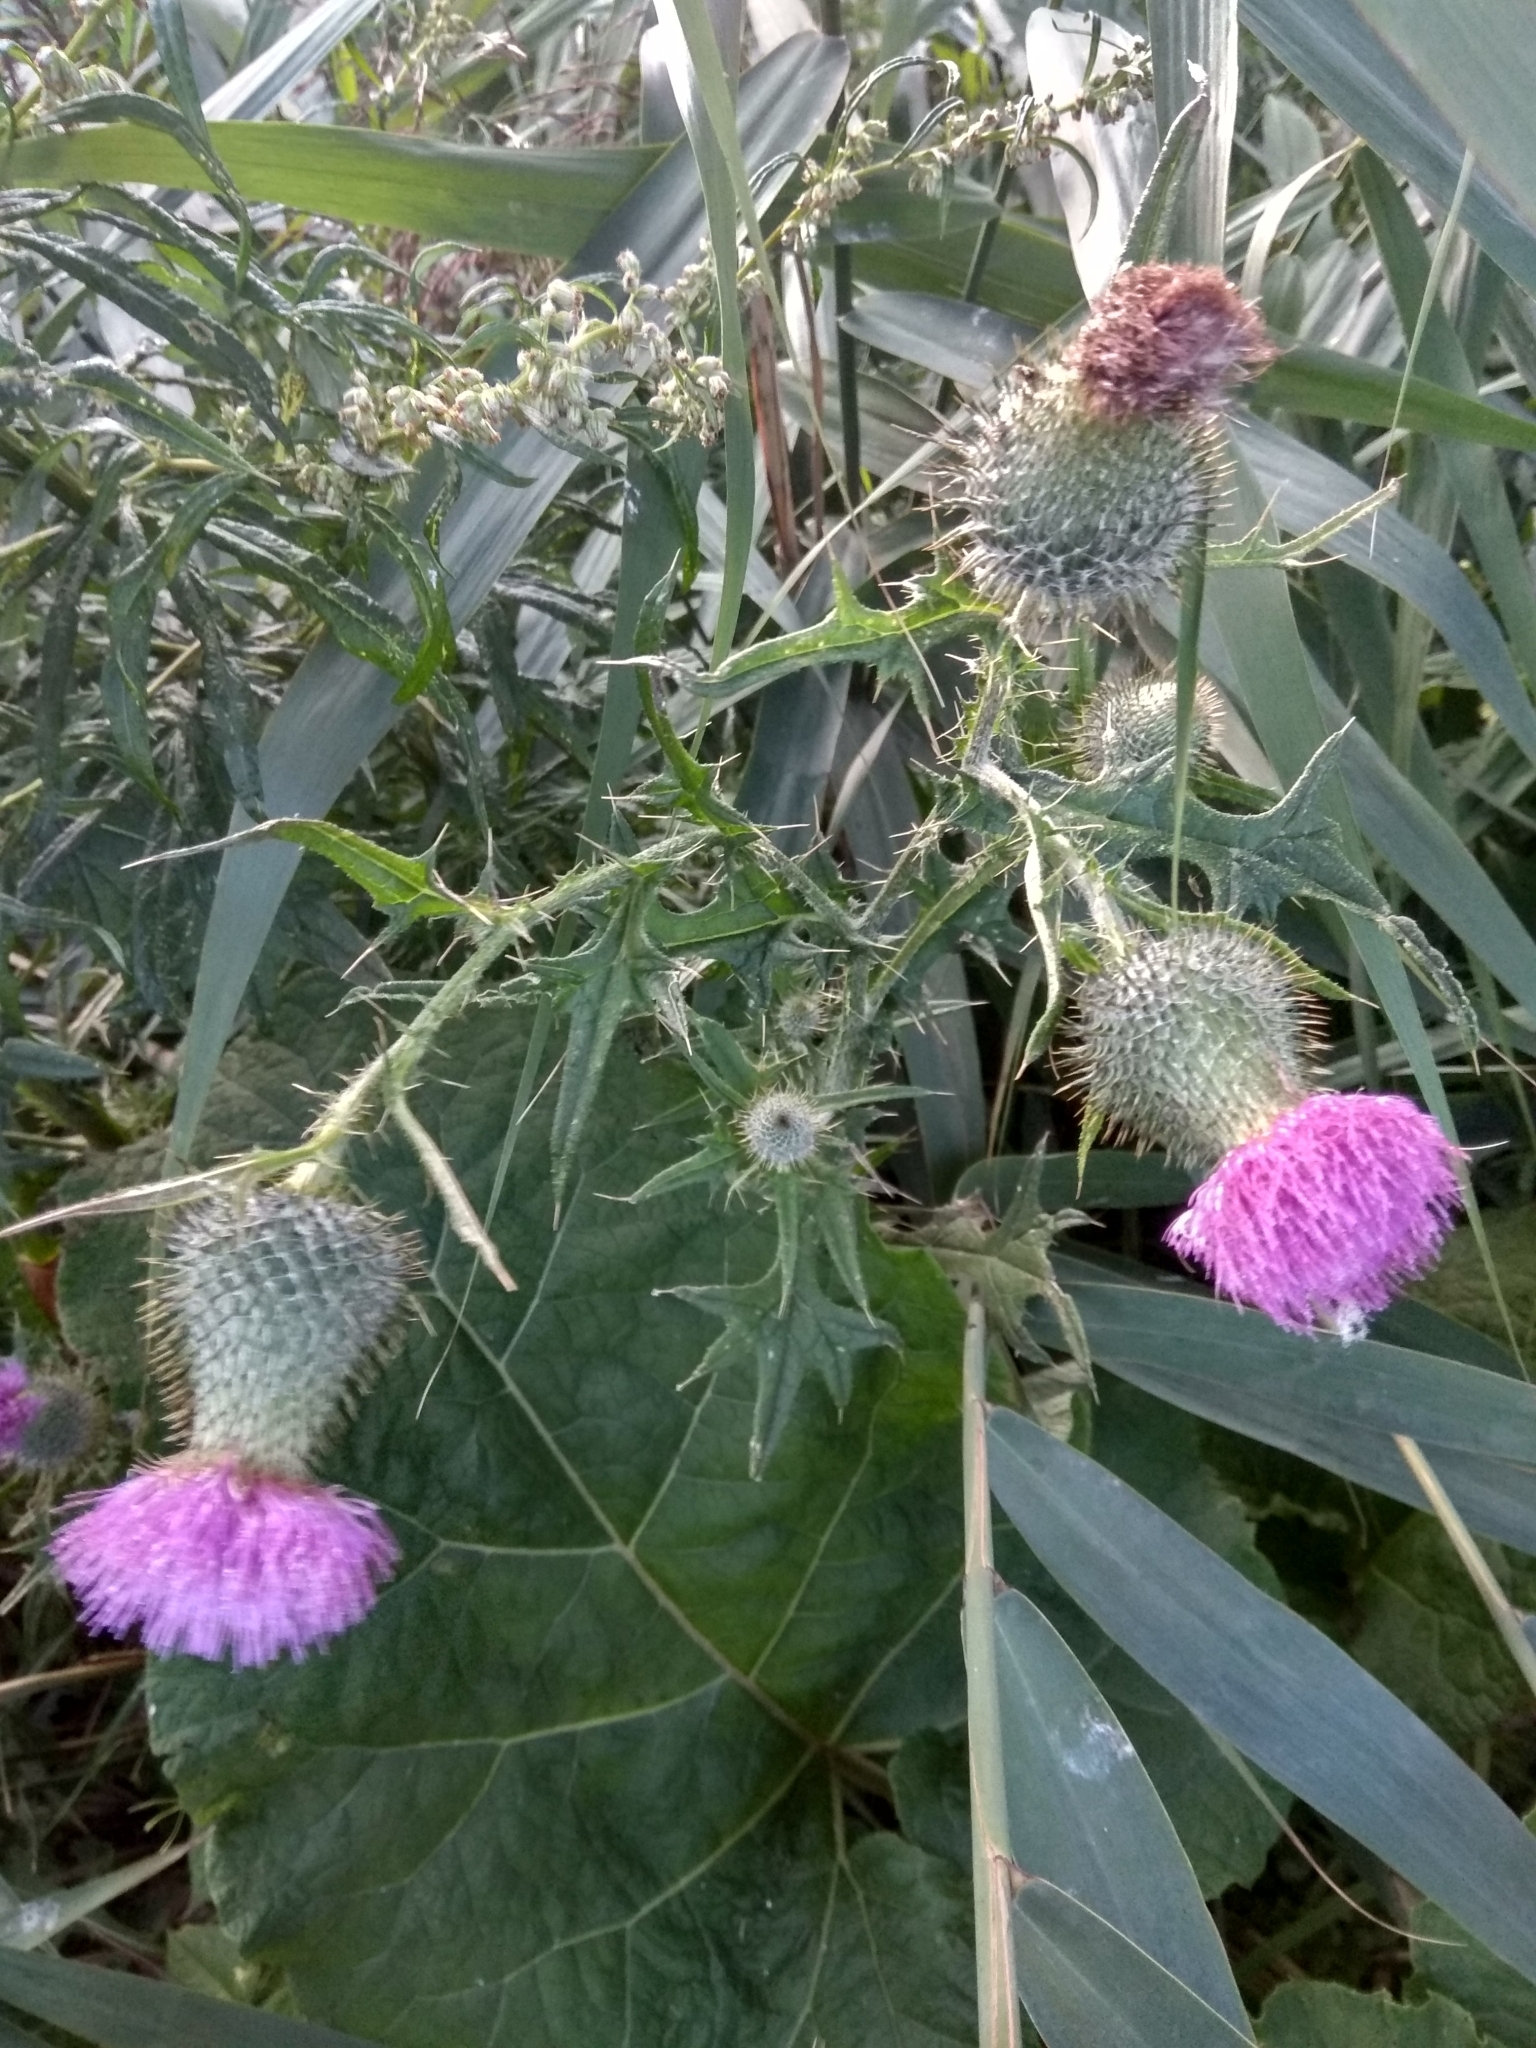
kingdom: Plantae
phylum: Tracheophyta
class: Magnoliopsida
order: Asterales
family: Asteraceae
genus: Cirsium
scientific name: Cirsium vulgare
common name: Bull thistle
